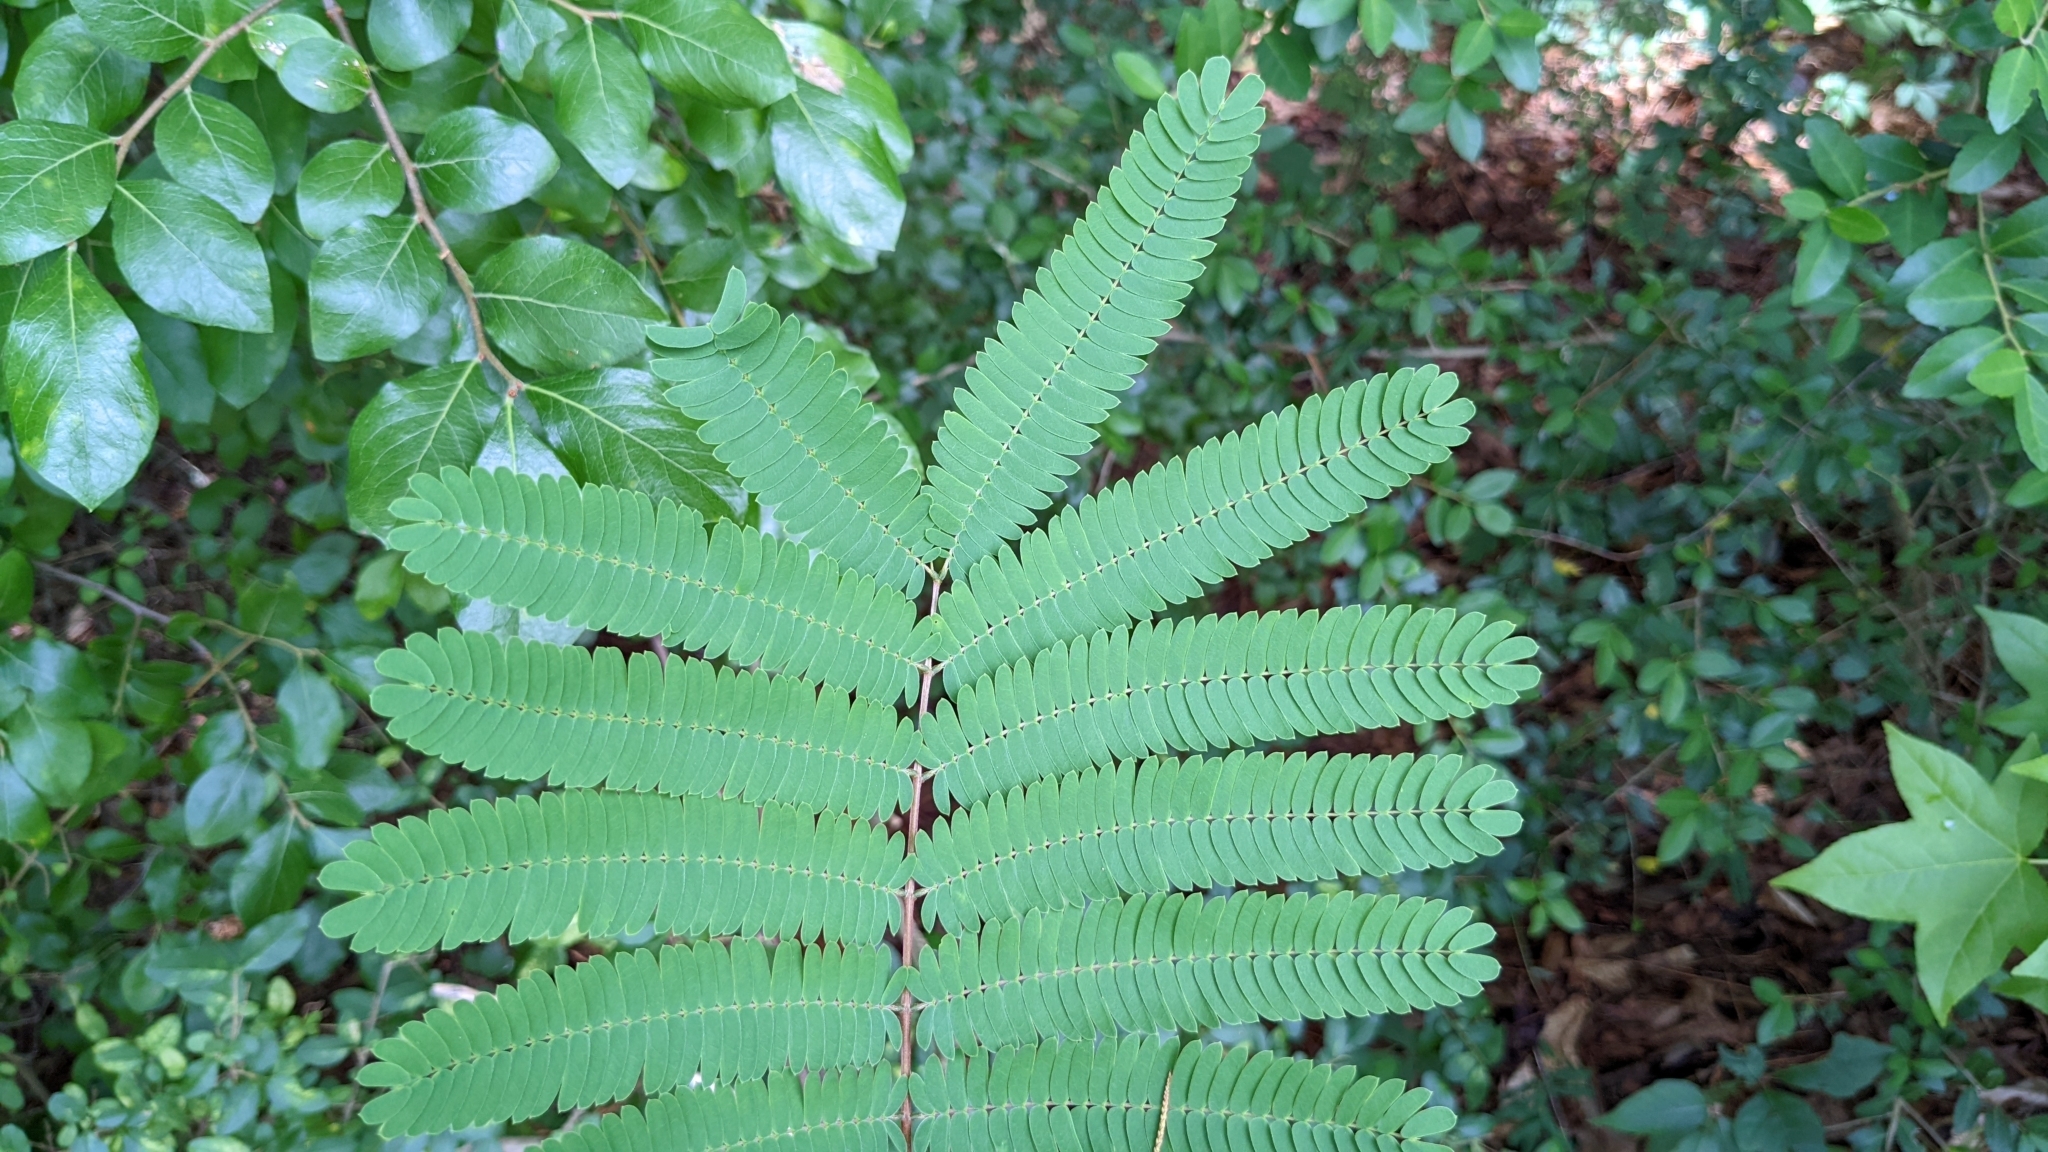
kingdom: Plantae
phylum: Tracheophyta
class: Magnoliopsida
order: Fabales
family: Fabaceae
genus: Albizia
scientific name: Albizia julibrissin
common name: Silktree
